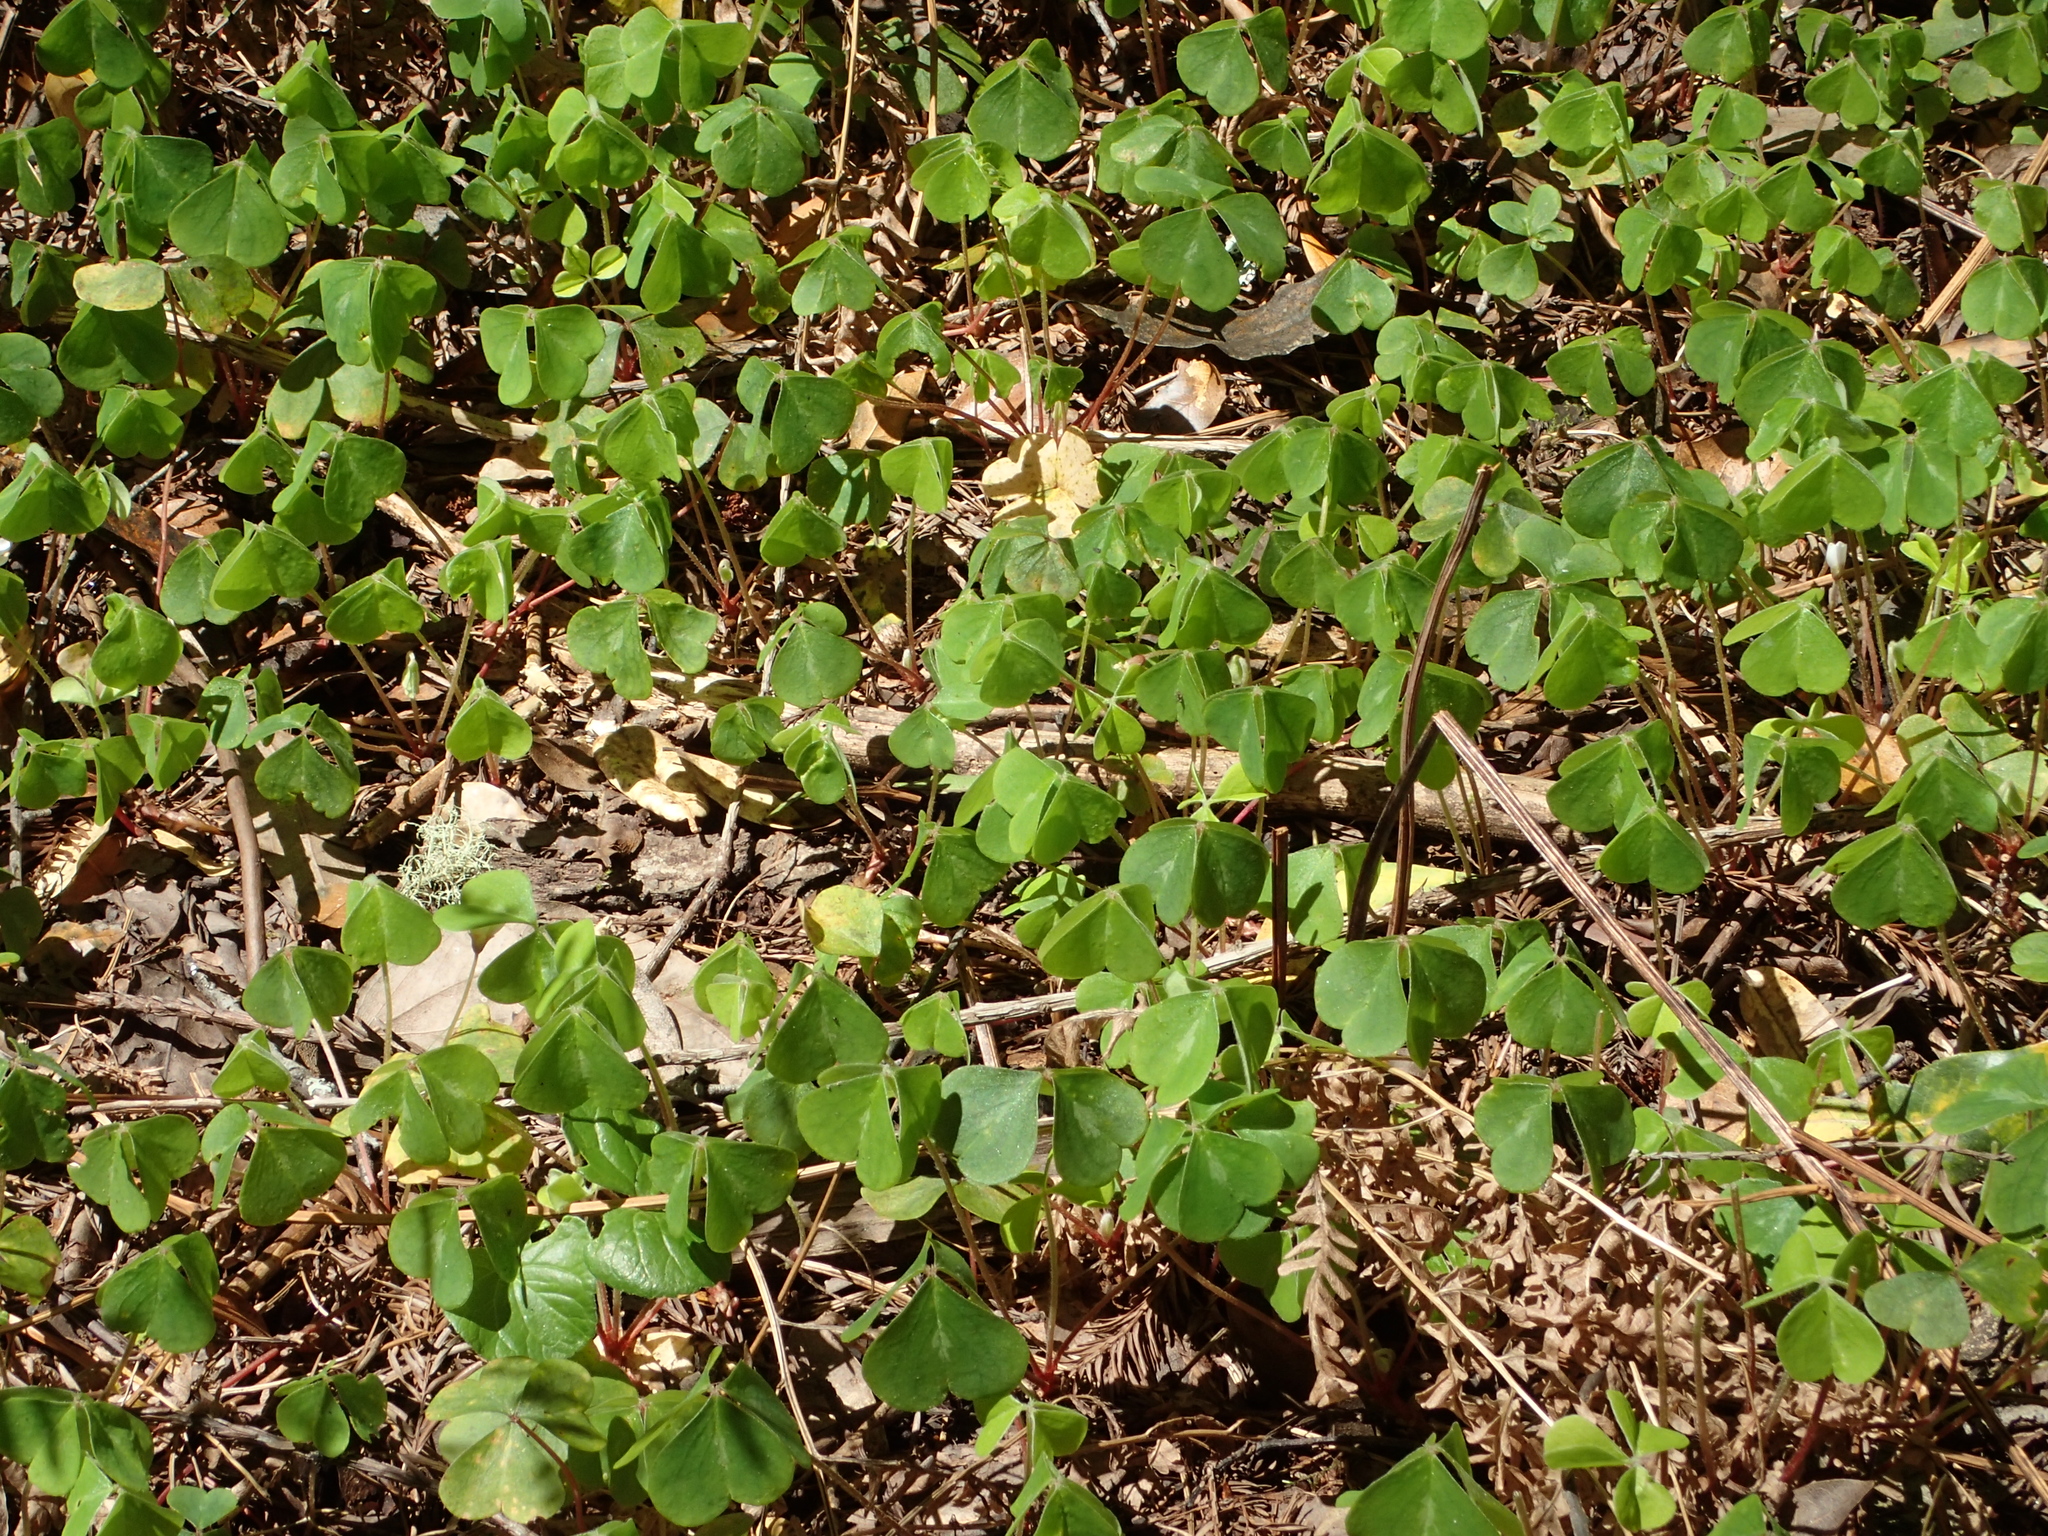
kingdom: Plantae
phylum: Tracheophyta
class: Magnoliopsida
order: Oxalidales
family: Oxalidaceae
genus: Oxalis
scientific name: Oxalis oregana
